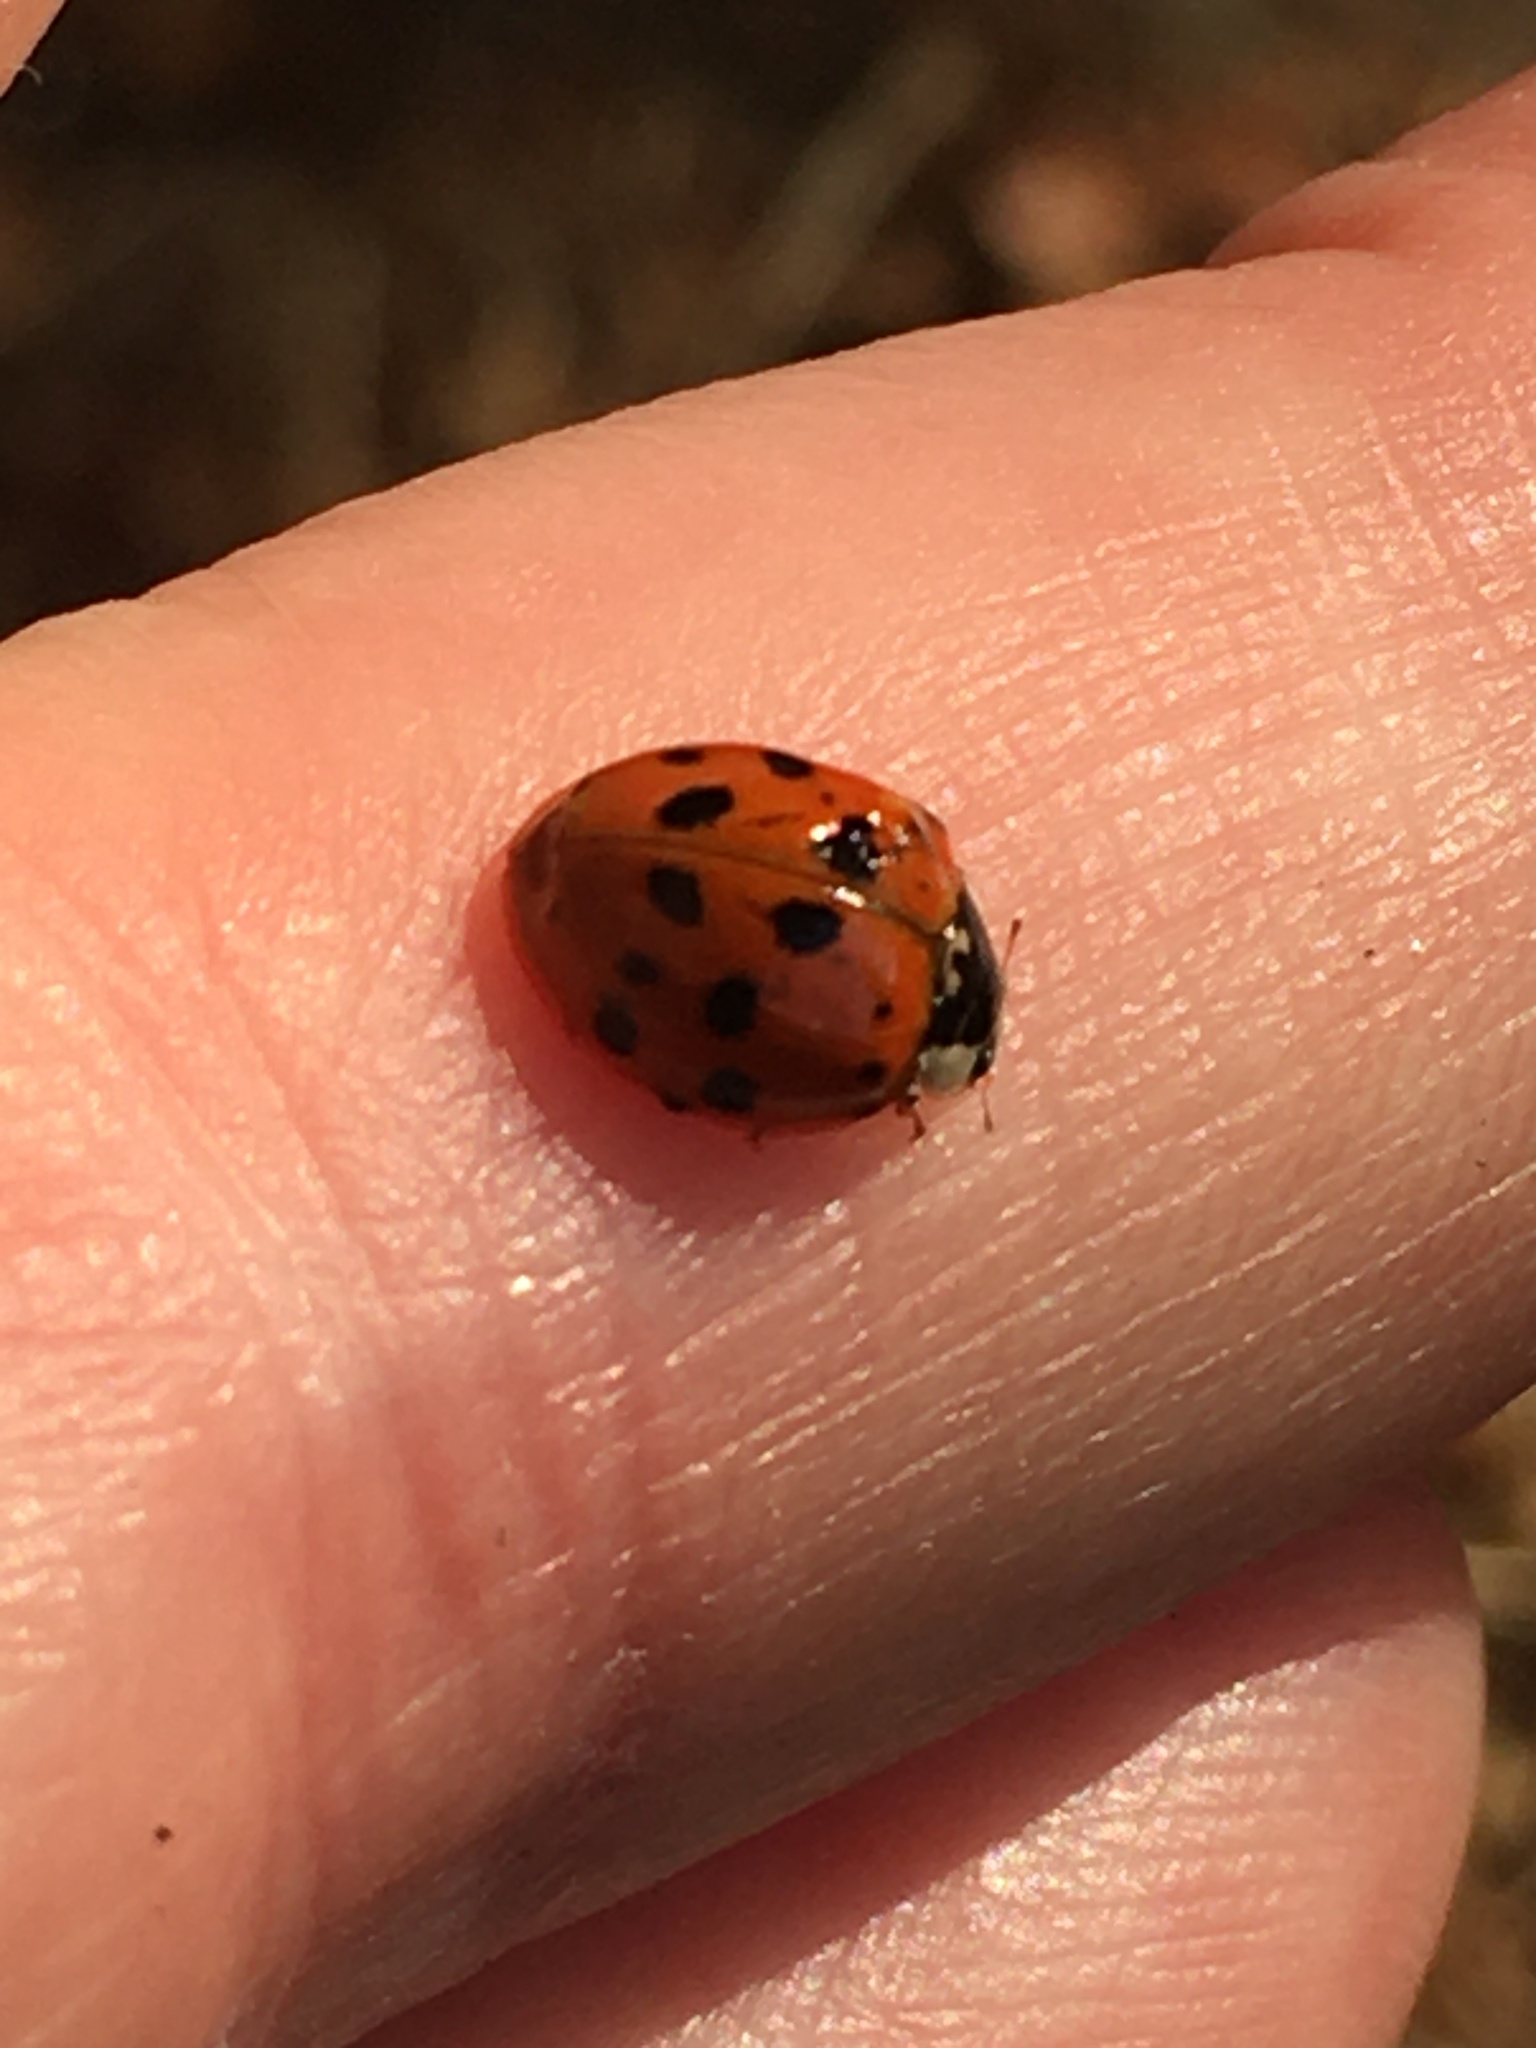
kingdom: Animalia
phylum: Arthropoda
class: Insecta
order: Coleoptera
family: Coccinellidae
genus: Harmonia
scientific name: Harmonia axyridis
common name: Harlequin ladybird
